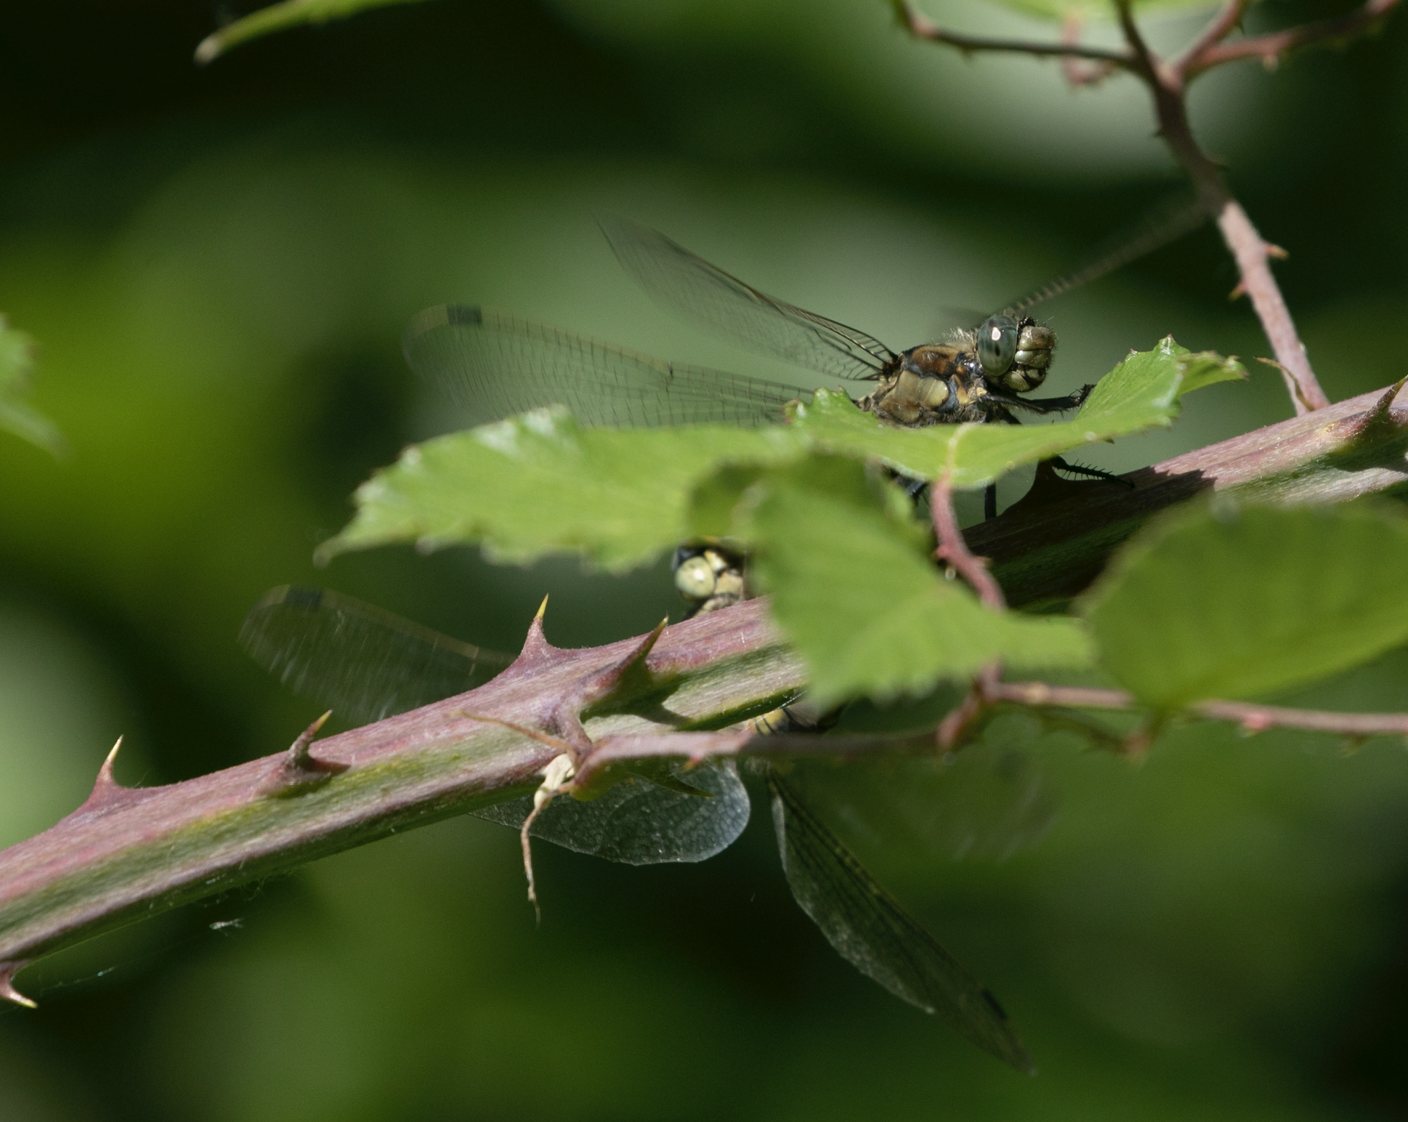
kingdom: Animalia
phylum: Arthropoda
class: Insecta
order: Odonata
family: Libellulidae
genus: Orthetrum
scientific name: Orthetrum cancellatum
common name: Black-tailed skimmer
